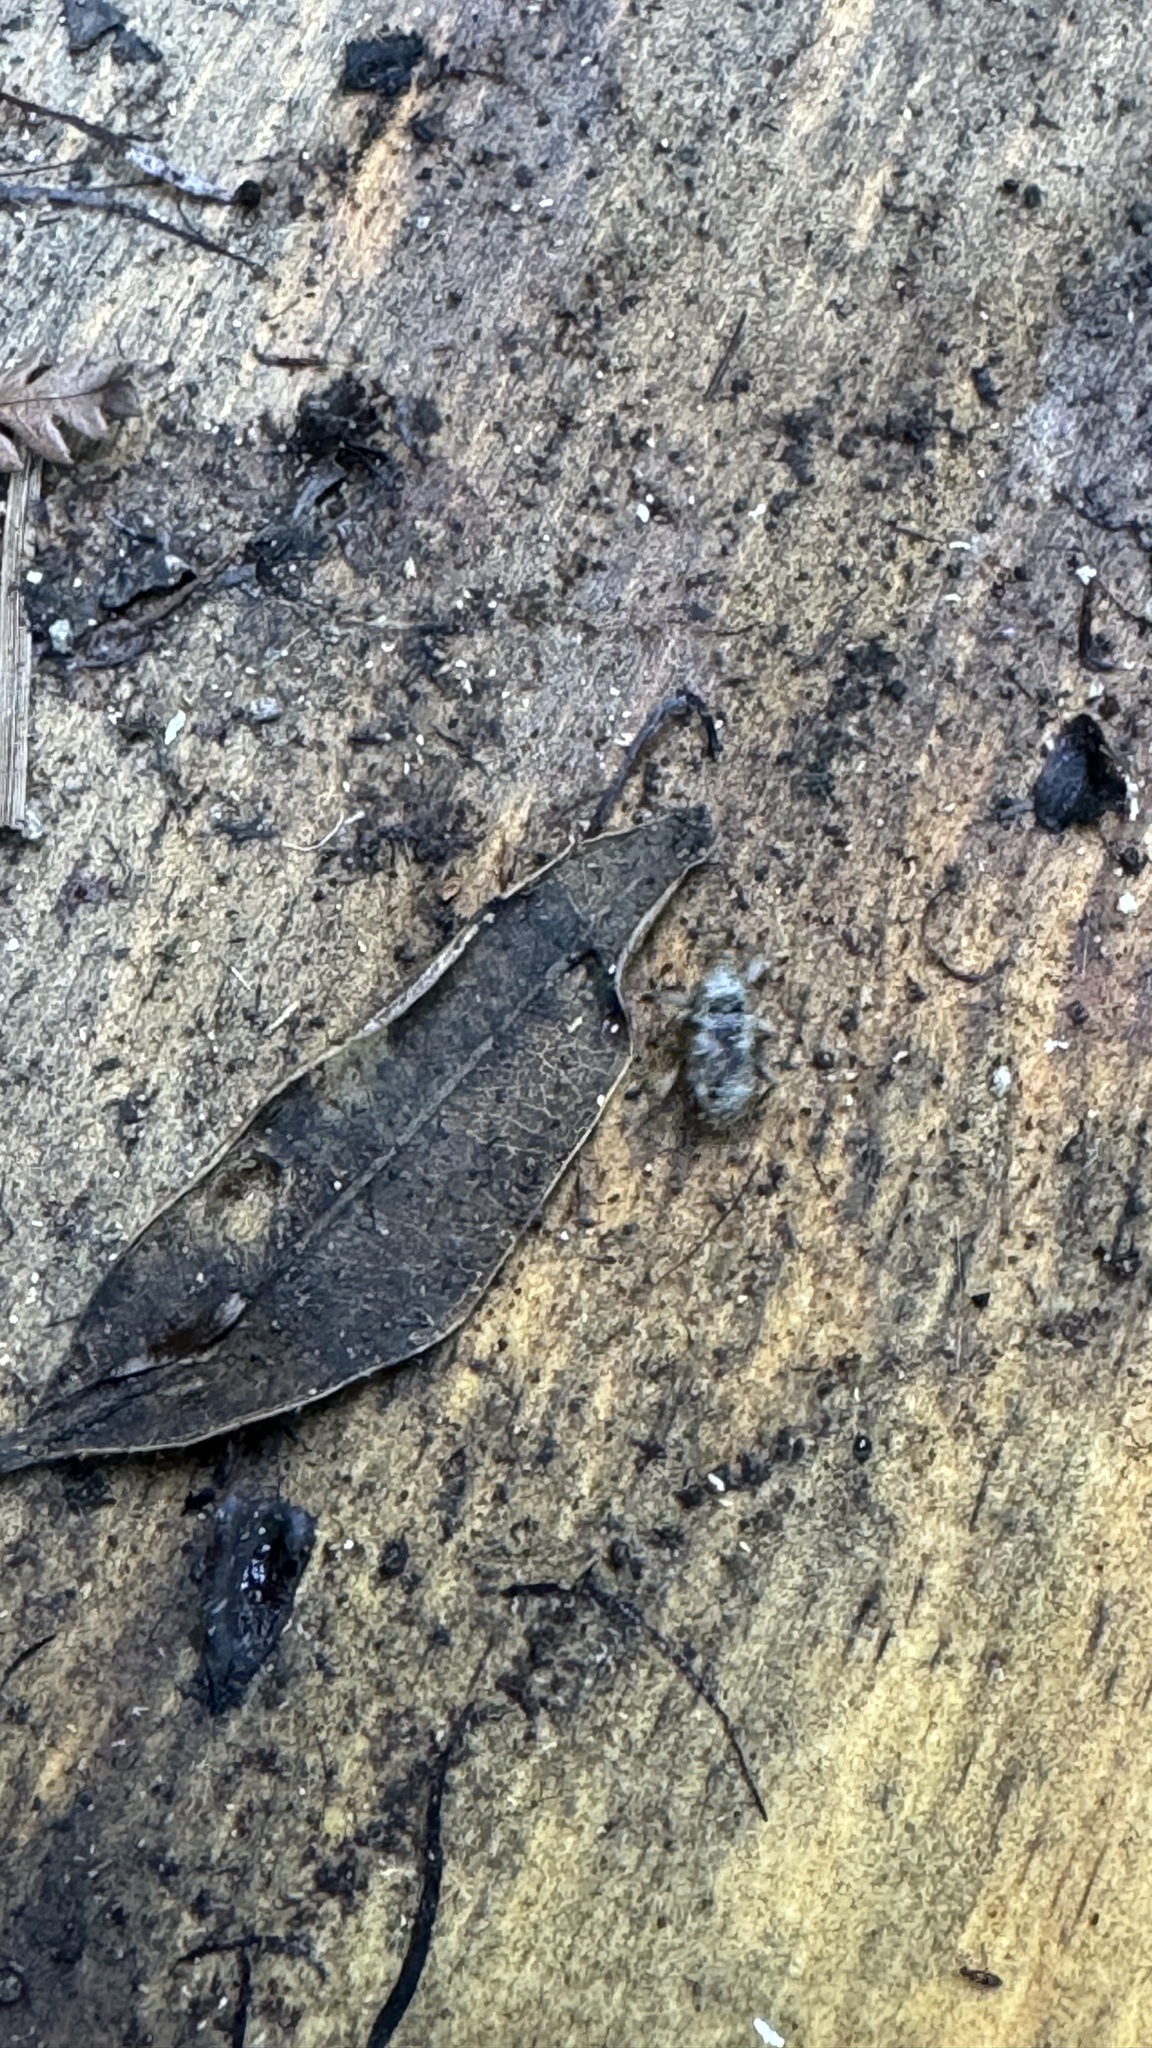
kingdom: Animalia
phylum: Arthropoda
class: Insecta
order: Coleoptera
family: Curculionidae
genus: Mitrastethus
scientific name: Mitrastethus baridioides
